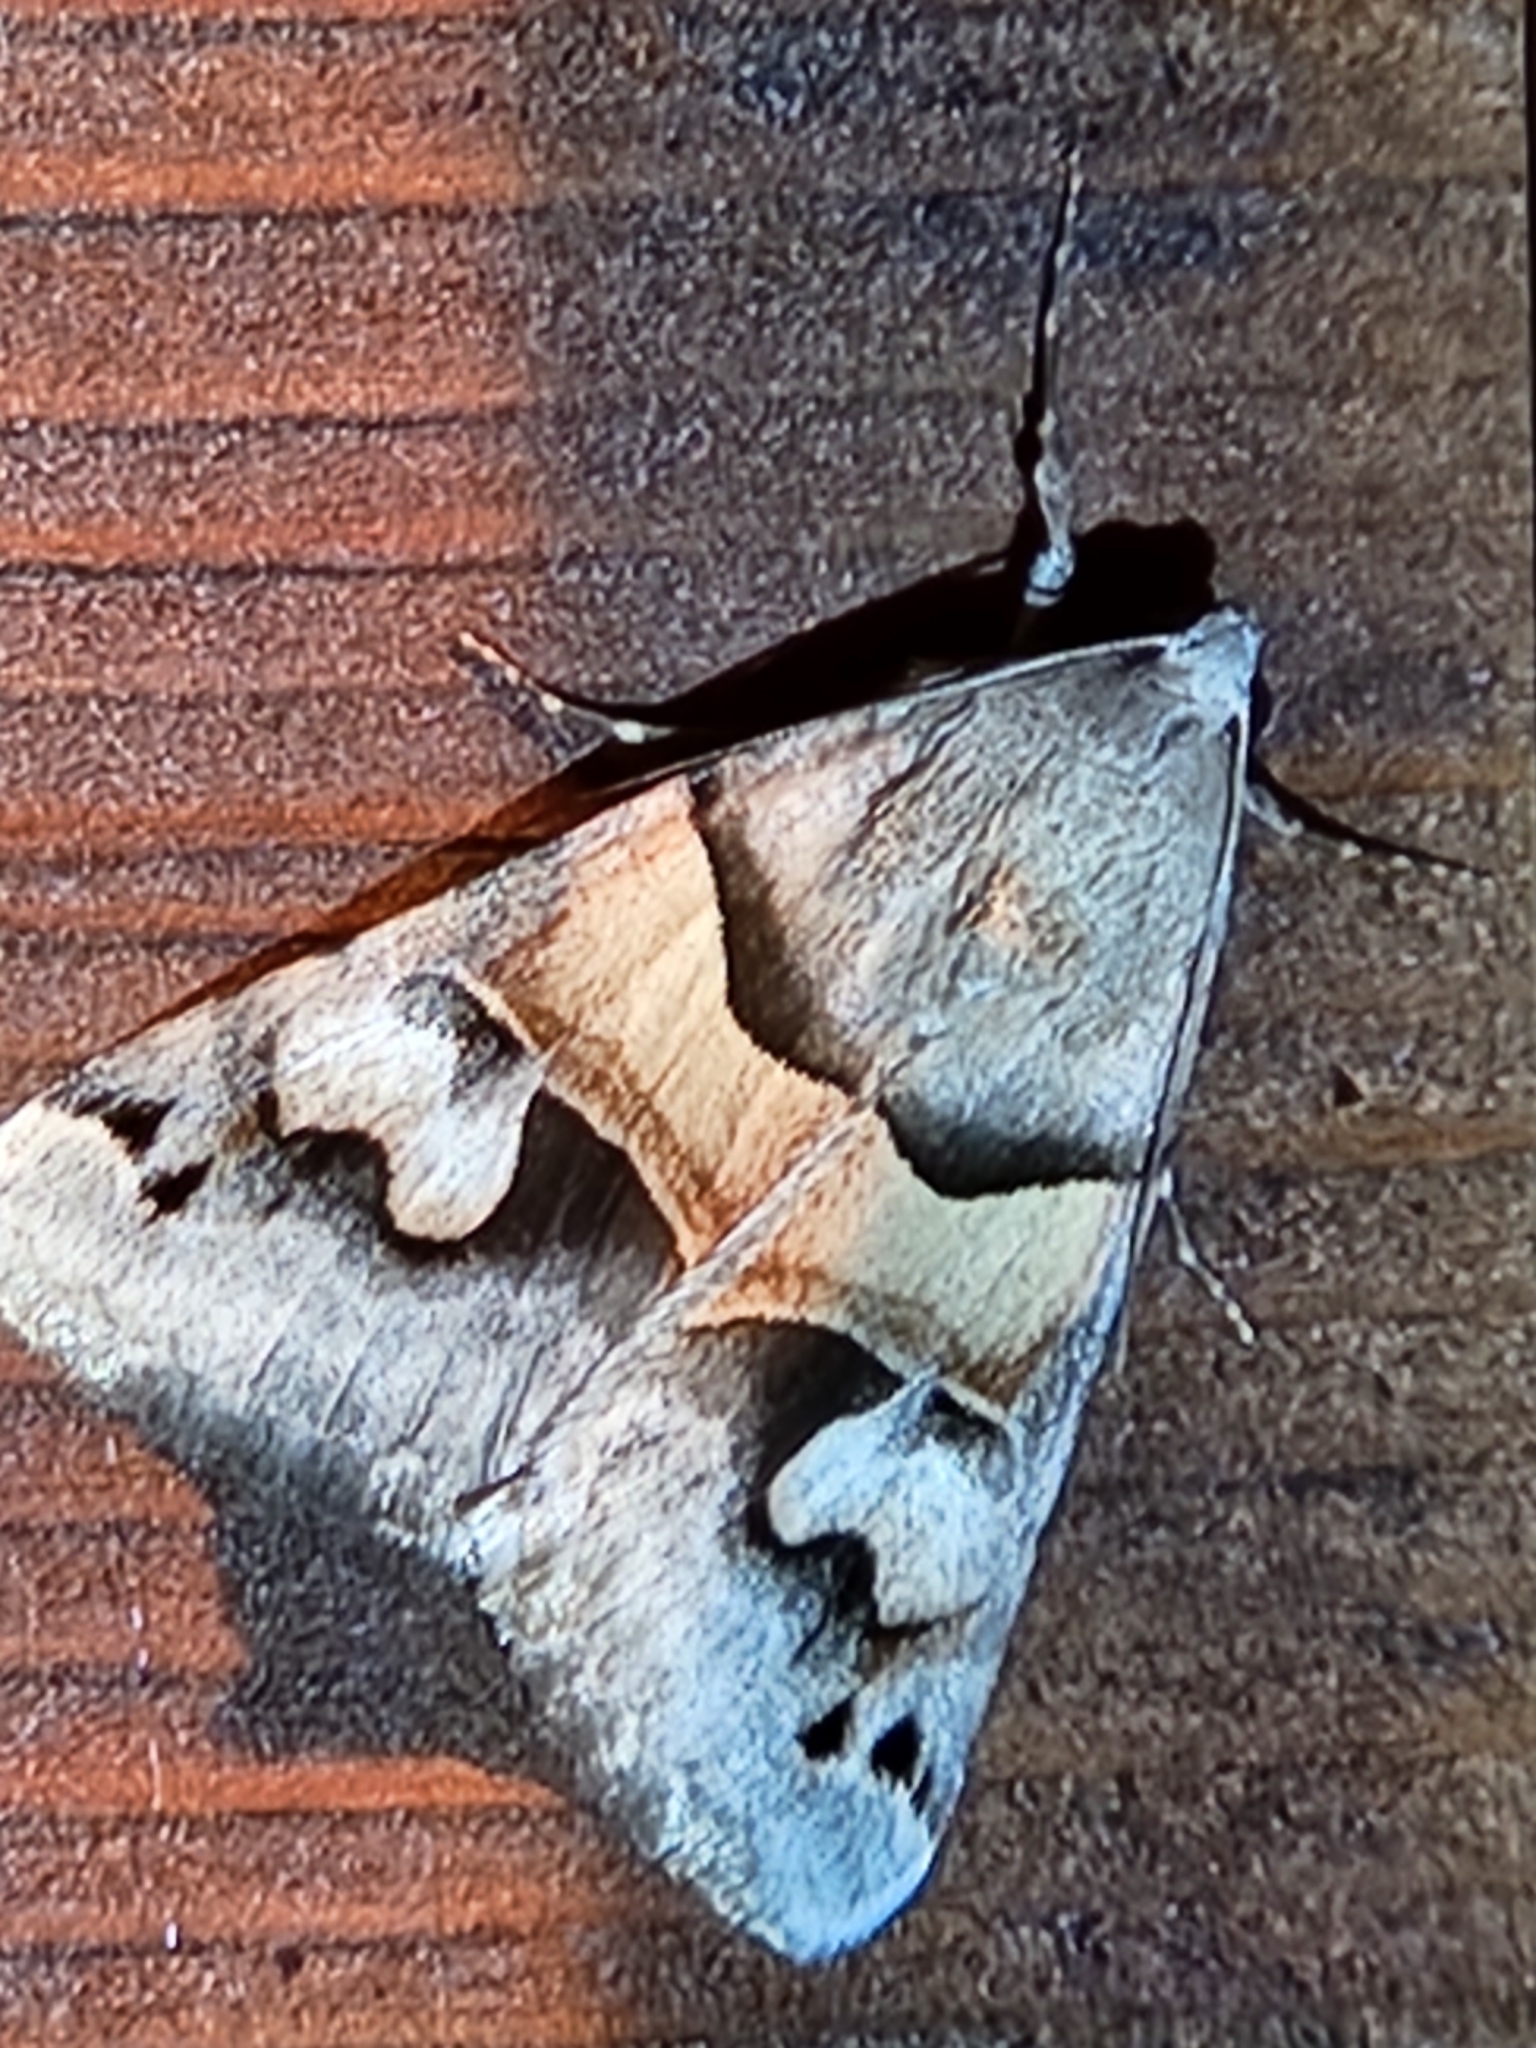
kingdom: Animalia
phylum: Arthropoda
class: Insecta
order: Lepidoptera
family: Erebidae
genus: Drasteria
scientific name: Drasteria pallescens
